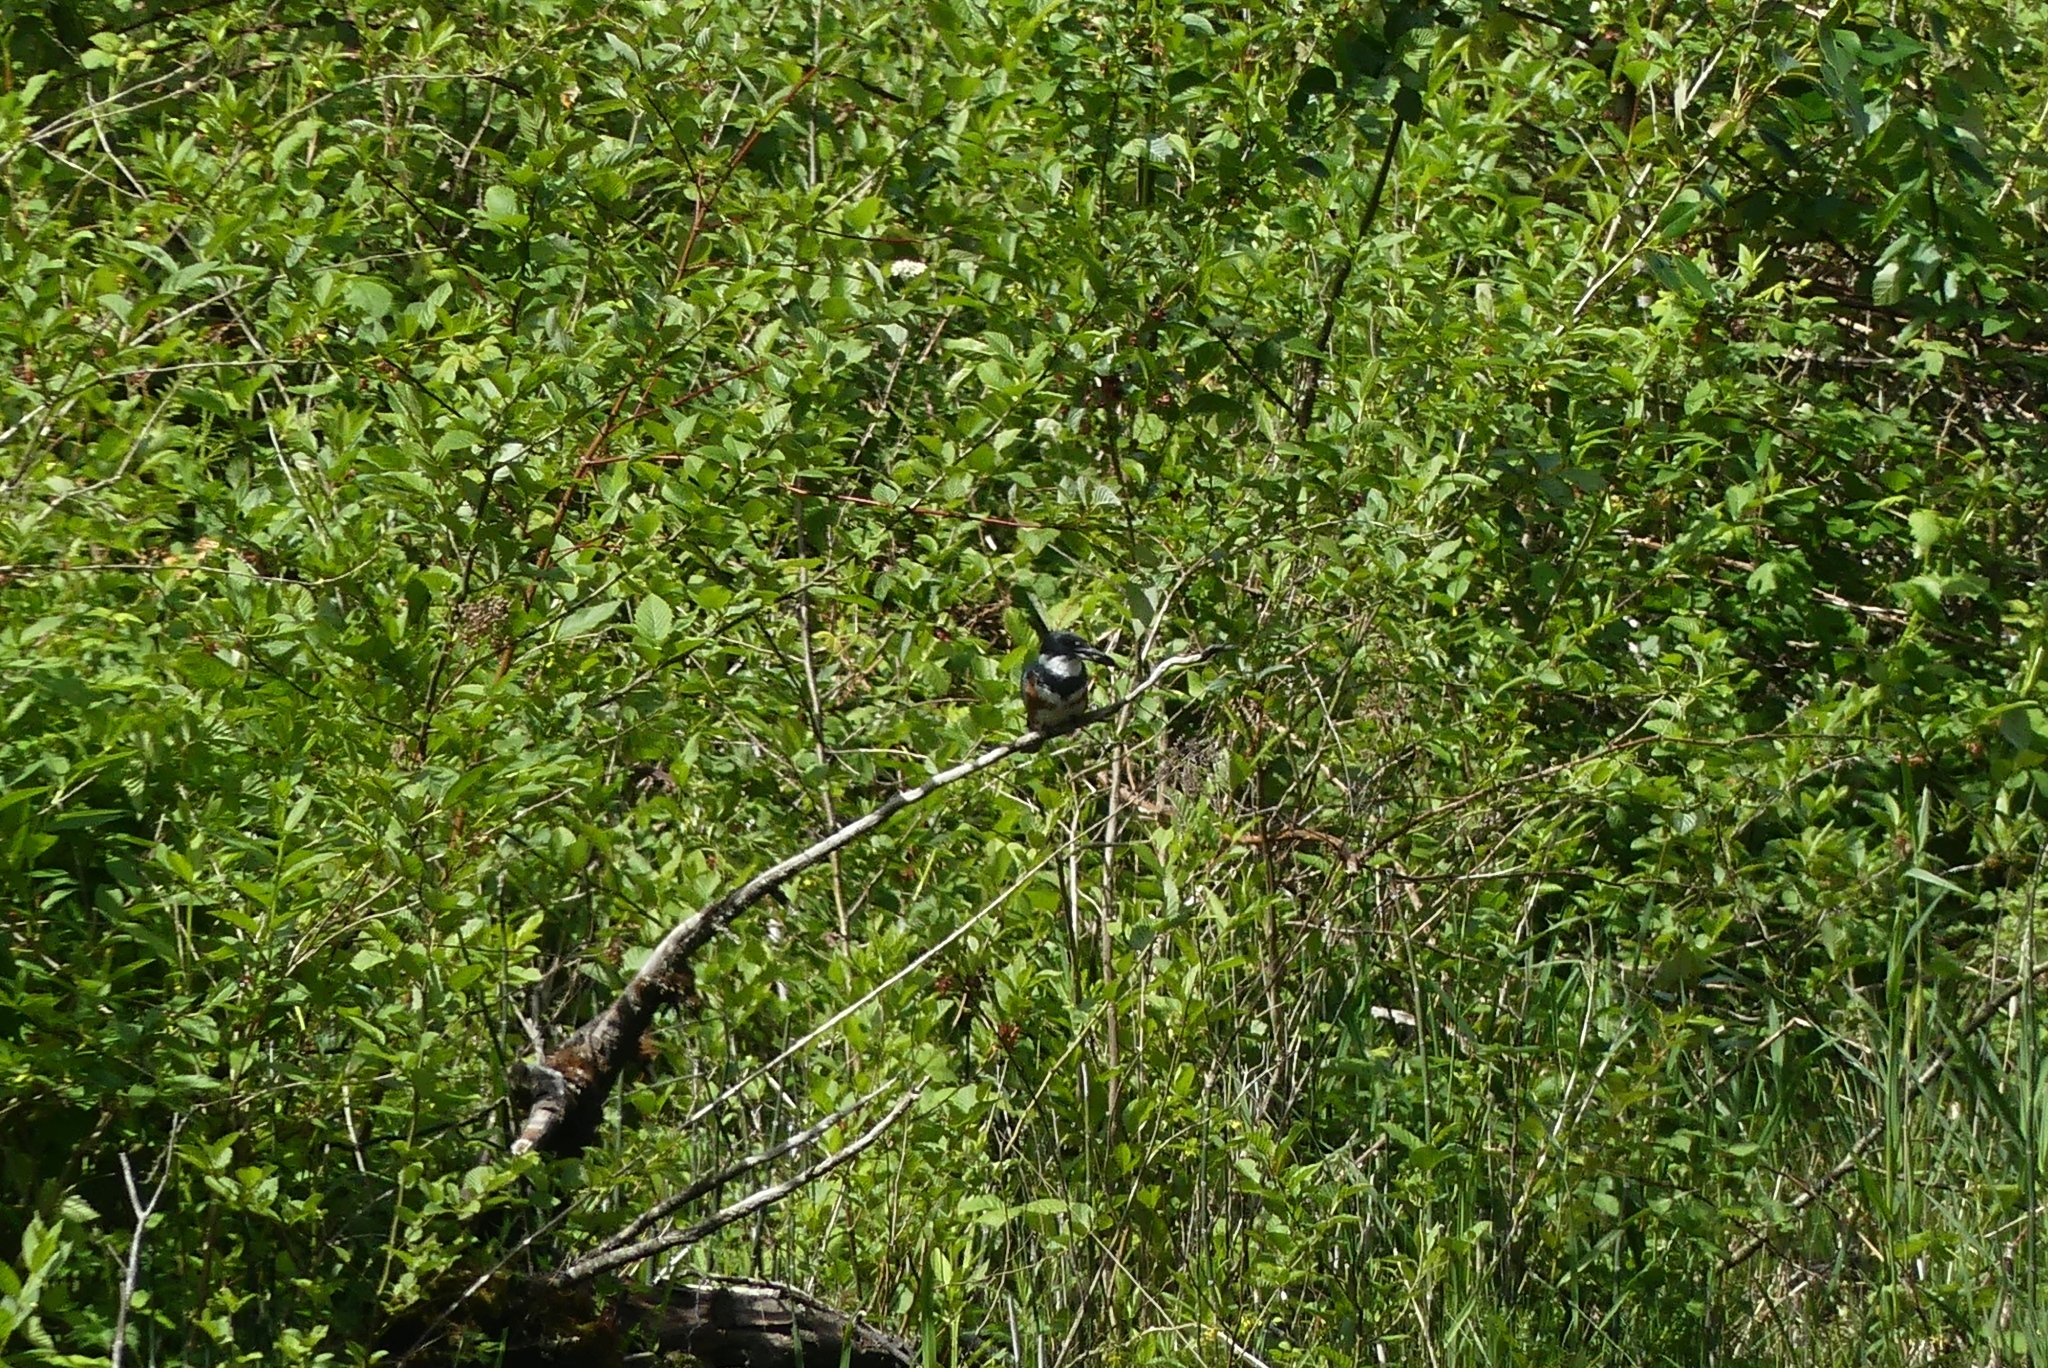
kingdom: Animalia
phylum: Chordata
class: Aves
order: Coraciiformes
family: Alcedinidae
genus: Megaceryle
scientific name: Megaceryle alcyon
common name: Belted kingfisher
